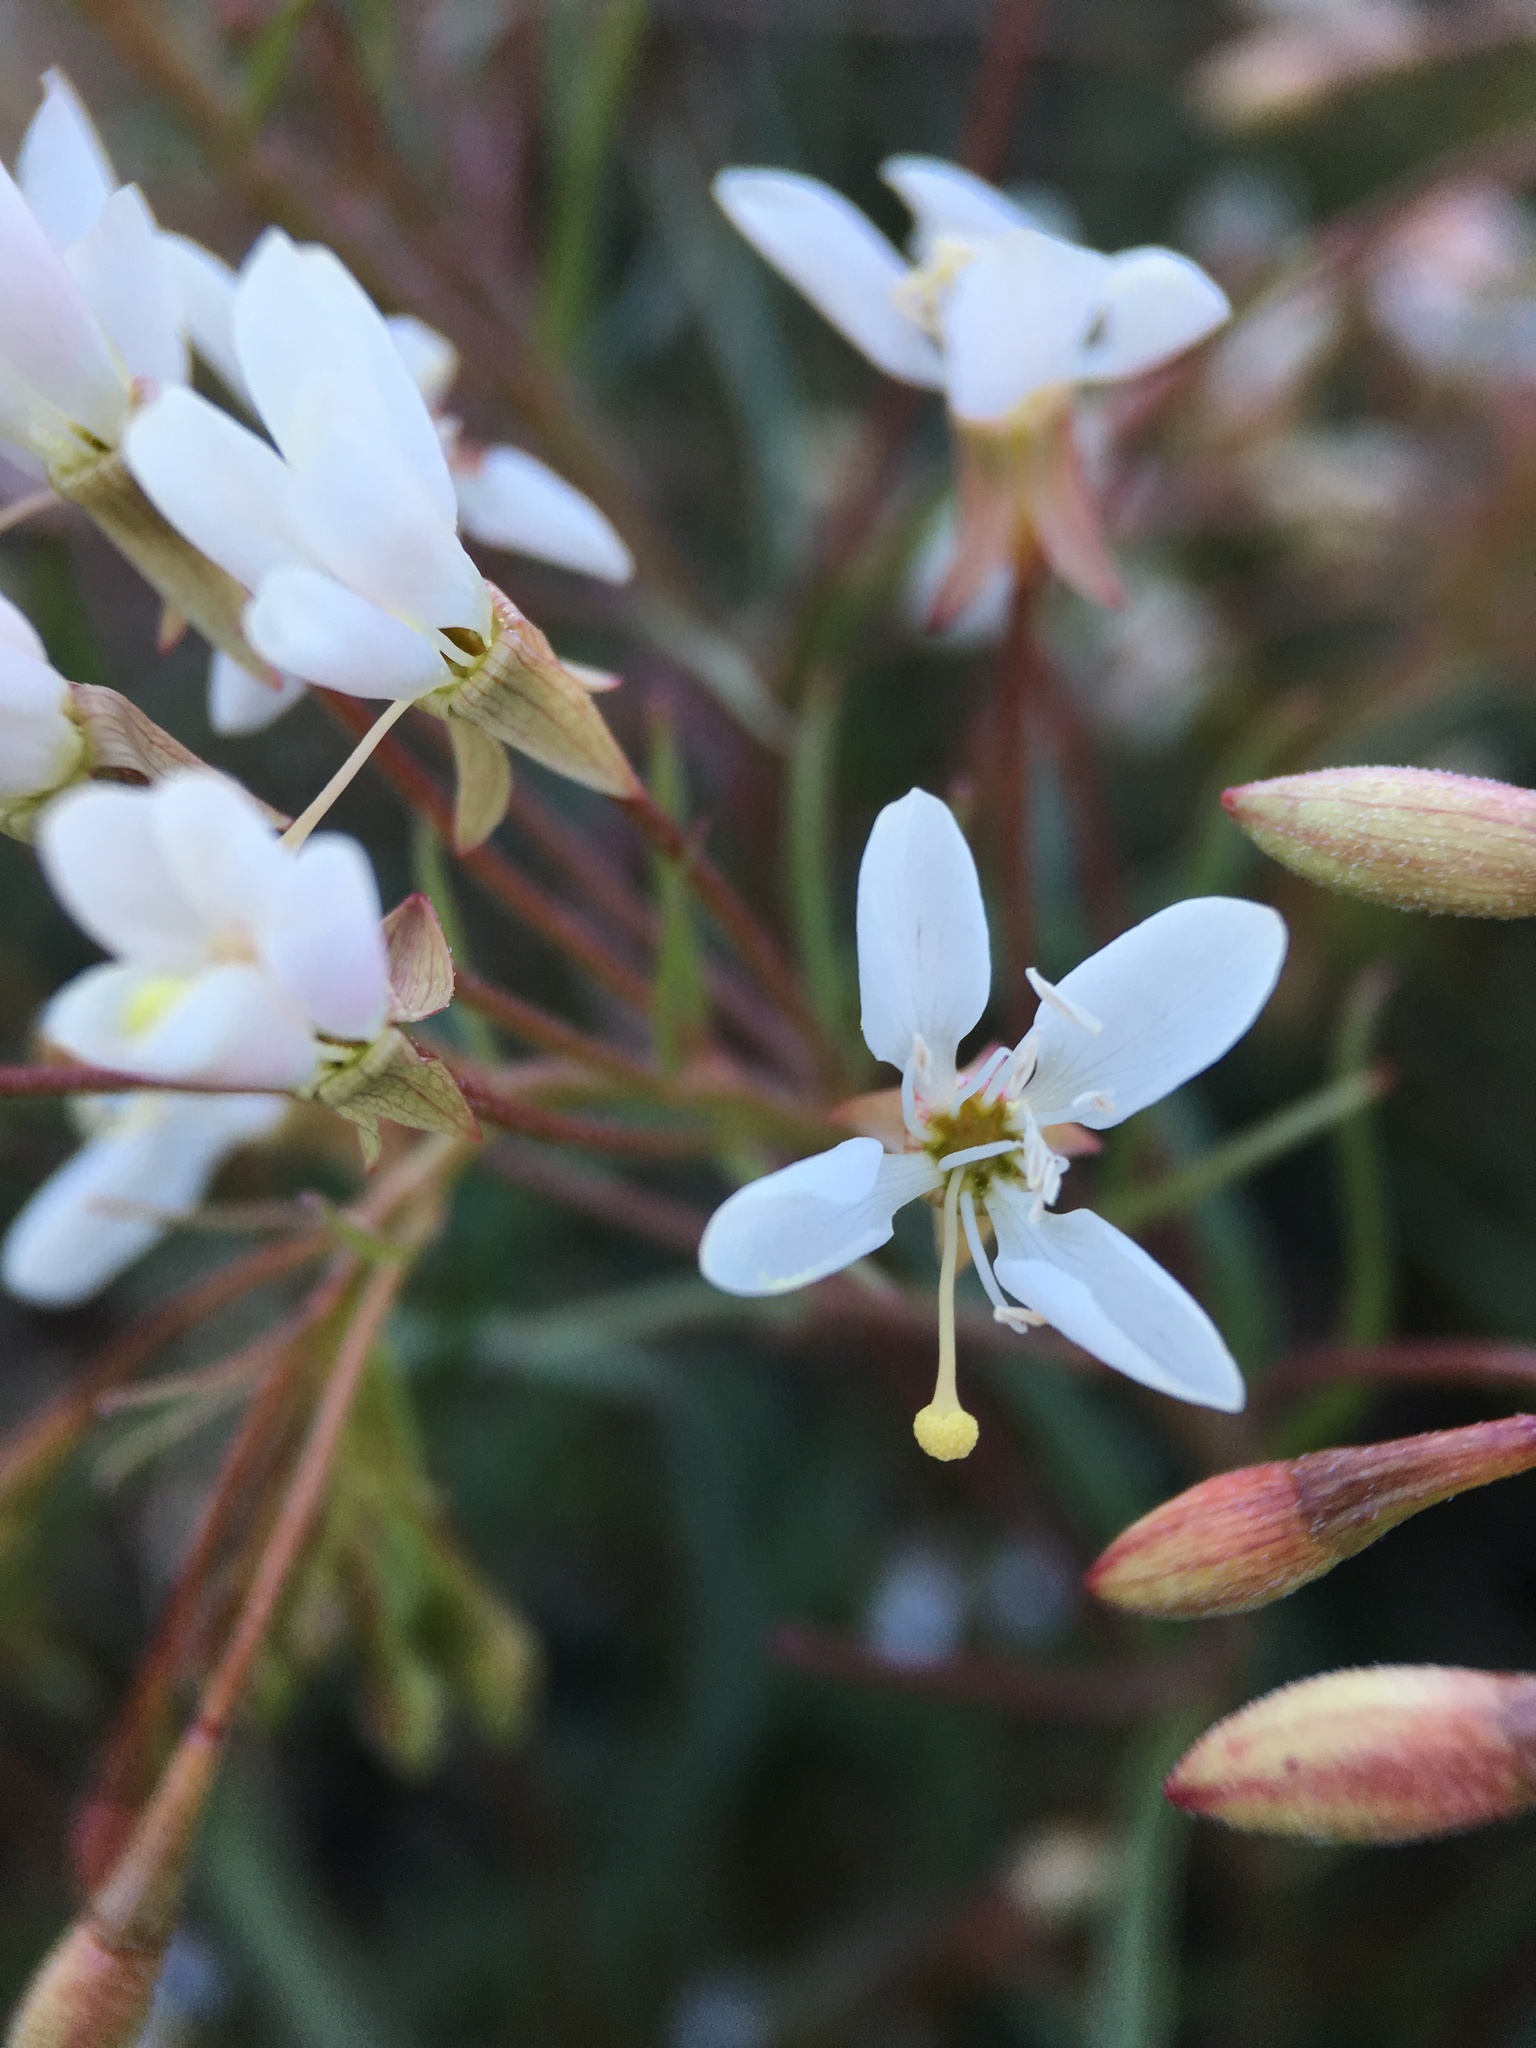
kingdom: Plantae
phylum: Tracheophyta
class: Magnoliopsida
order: Myrtales
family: Onagraceae
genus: Eremothera
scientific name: Eremothera refracta
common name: Narrowleaf suncup
